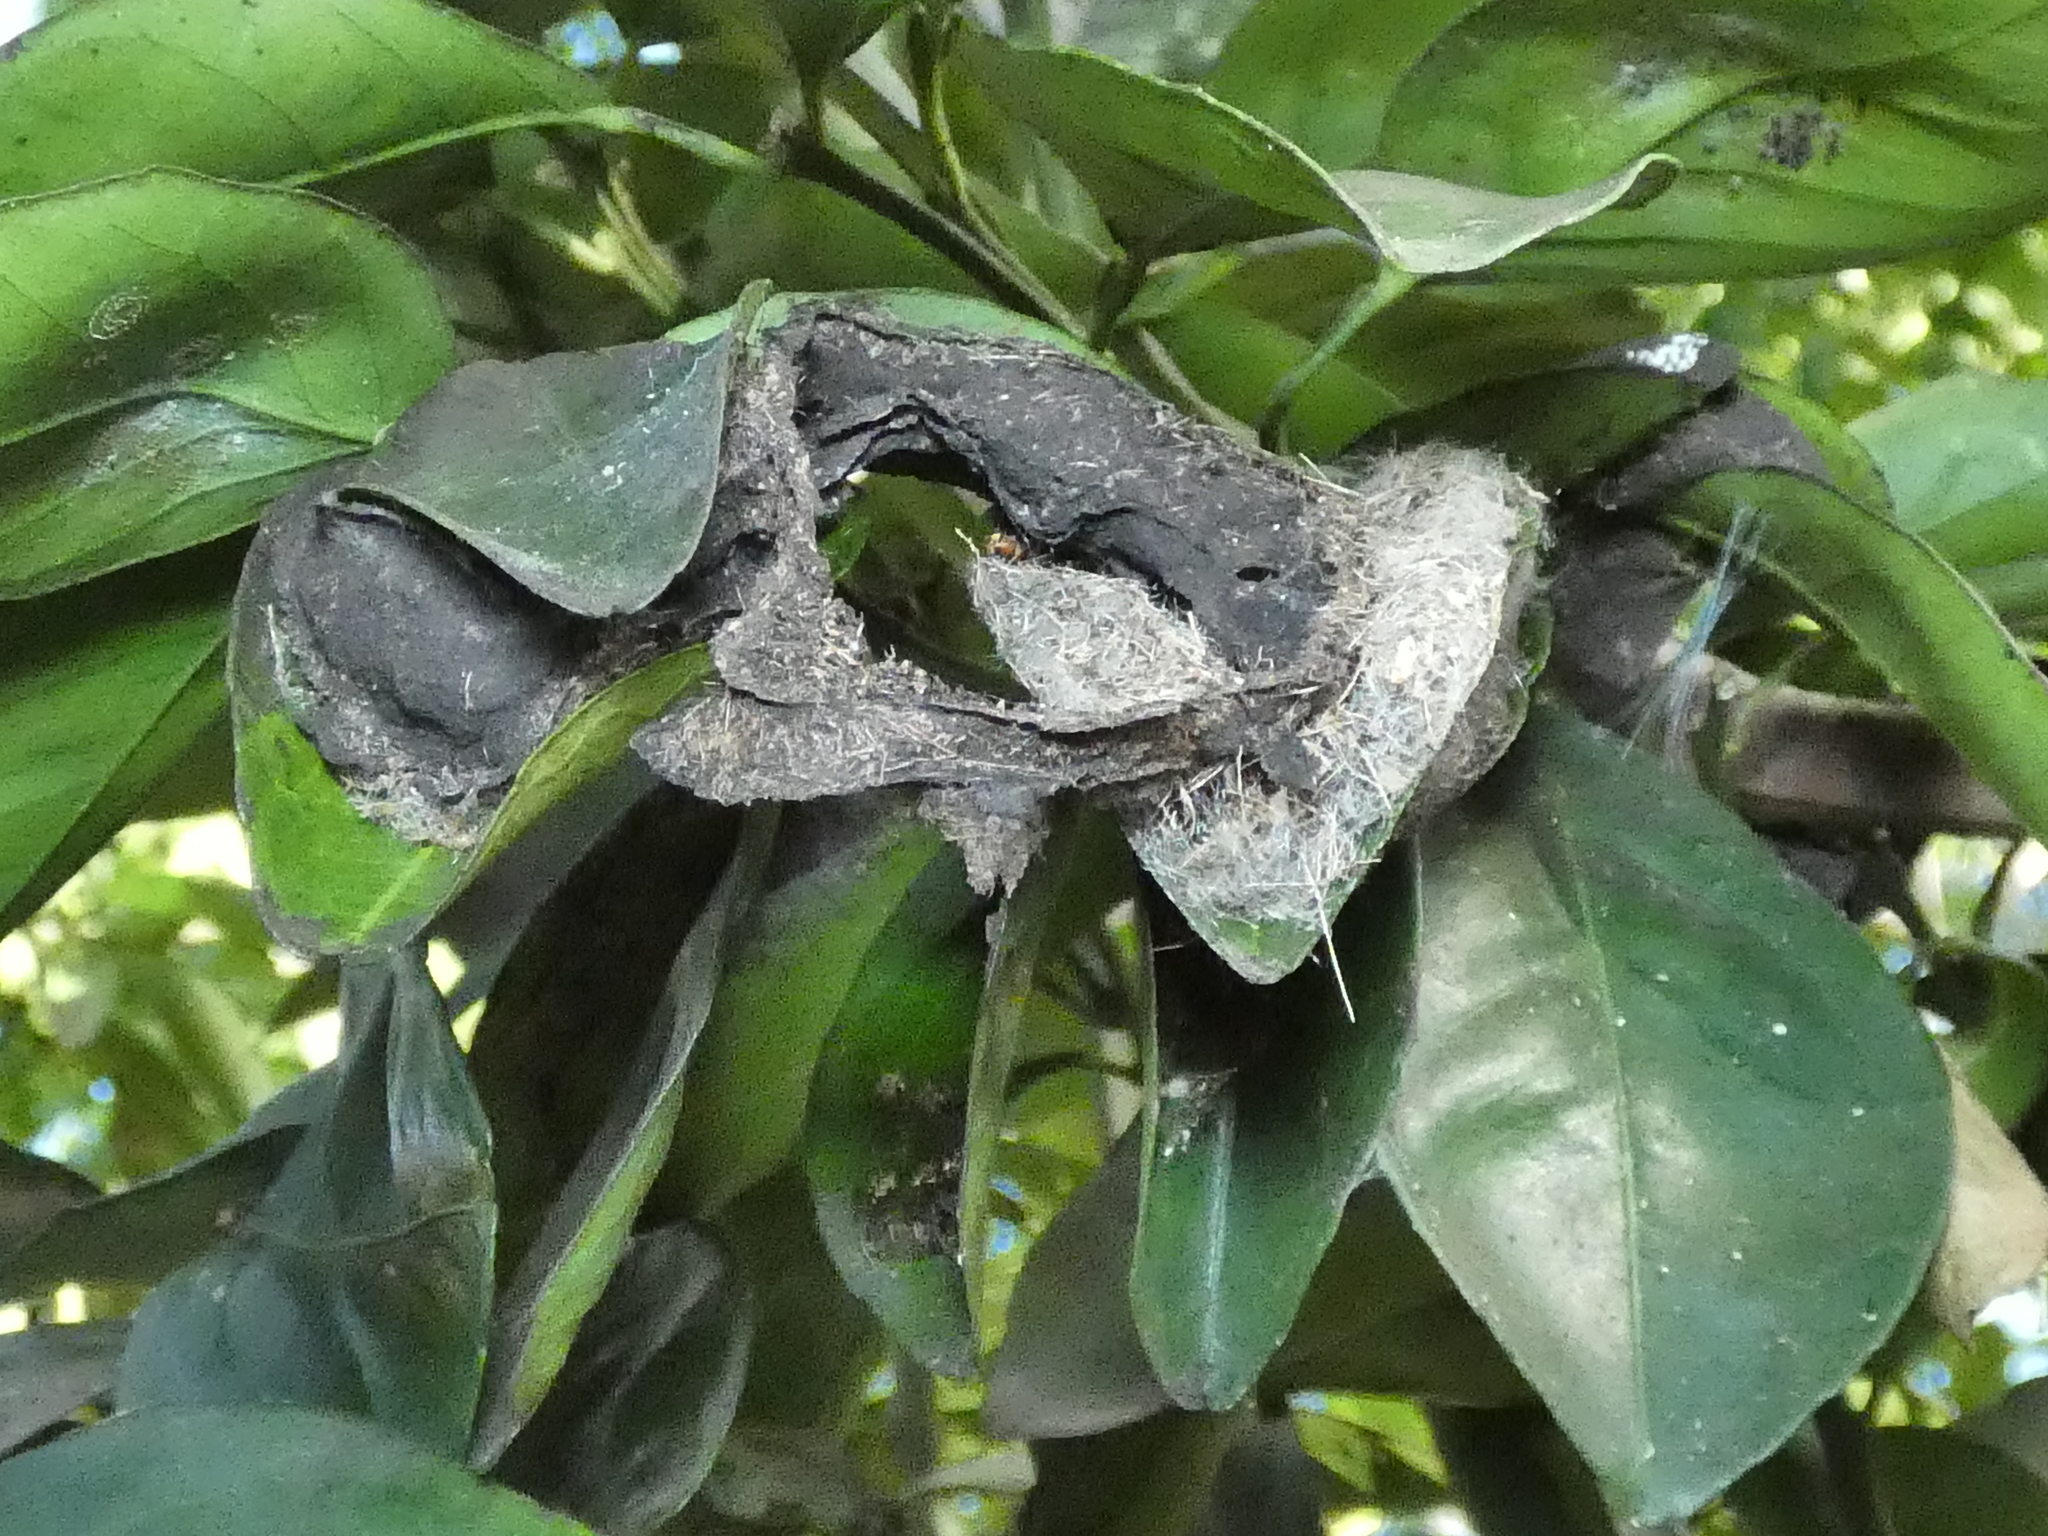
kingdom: Animalia
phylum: Arthropoda
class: Insecta
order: Hymenoptera
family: Formicidae
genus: Dolichoderus
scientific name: Dolichoderus bidens
